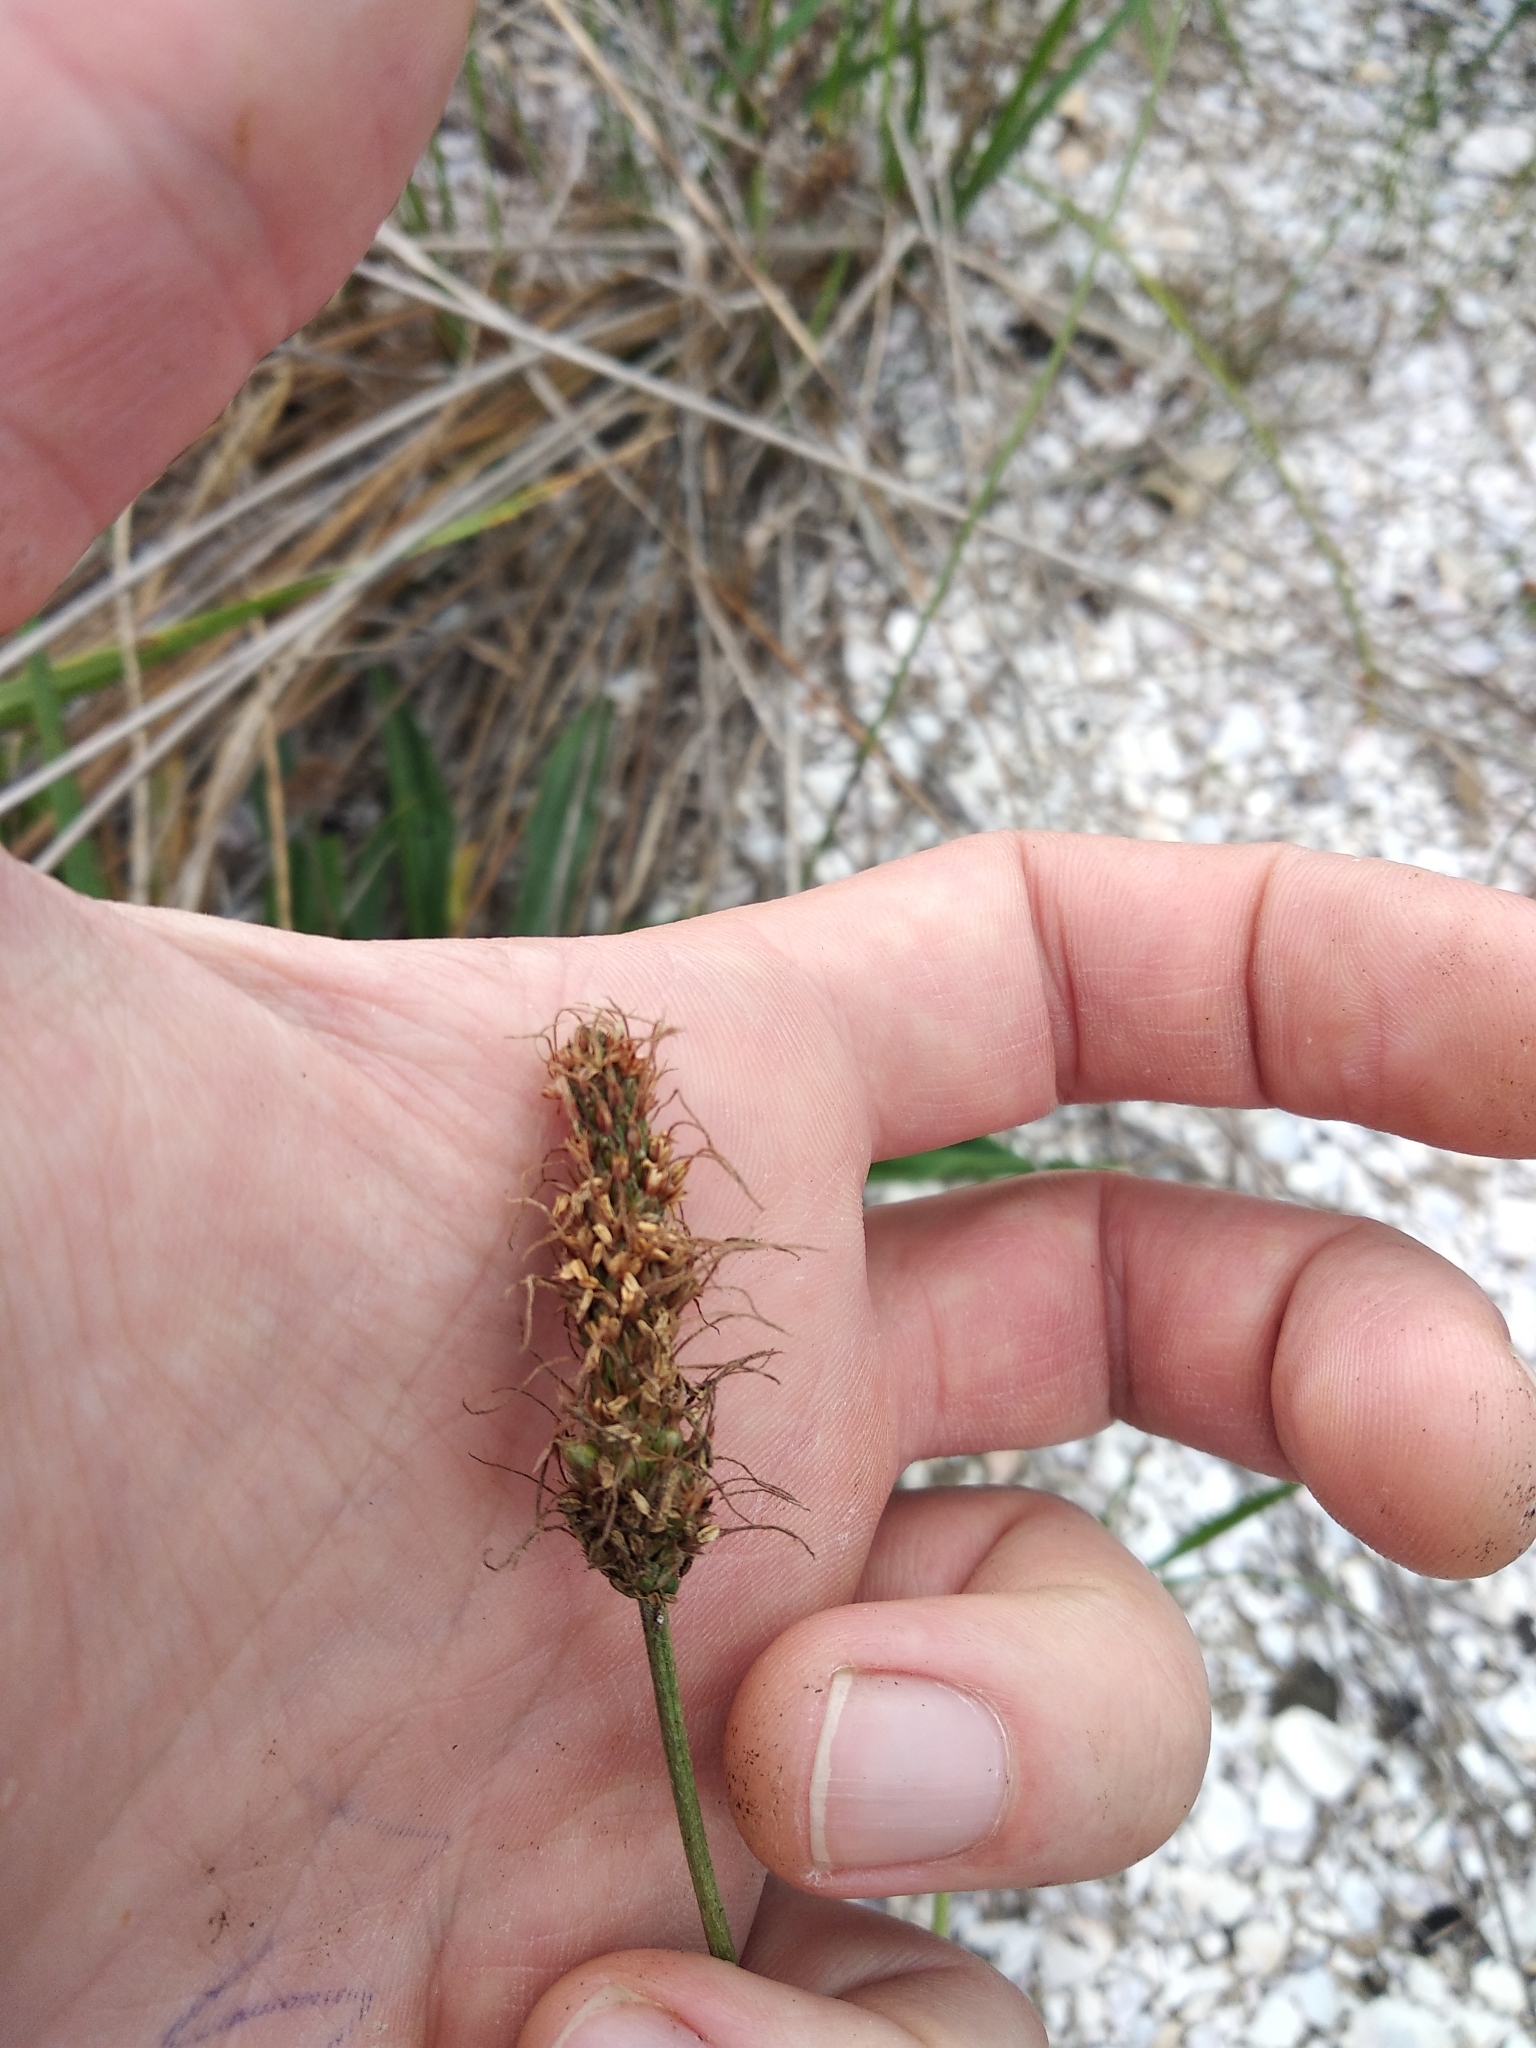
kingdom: Plantae
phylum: Tracheophyta
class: Magnoliopsida
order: Lamiales
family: Plantaginaceae
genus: Plantago
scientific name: Plantago lanceolata
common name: Ribwort plantain
